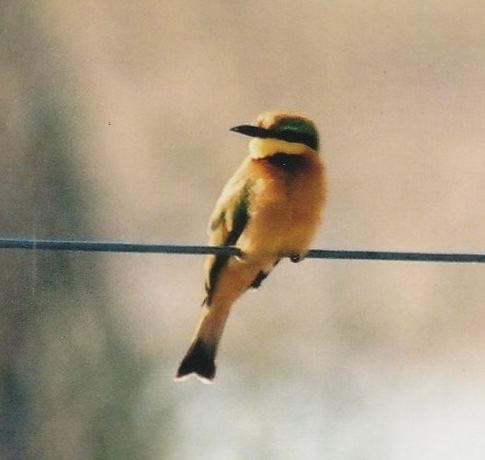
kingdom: Animalia
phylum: Chordata
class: Aves
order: Coraciiformes
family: Meropidae
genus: Merops
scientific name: Merops pusillus
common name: Little bee-eater
